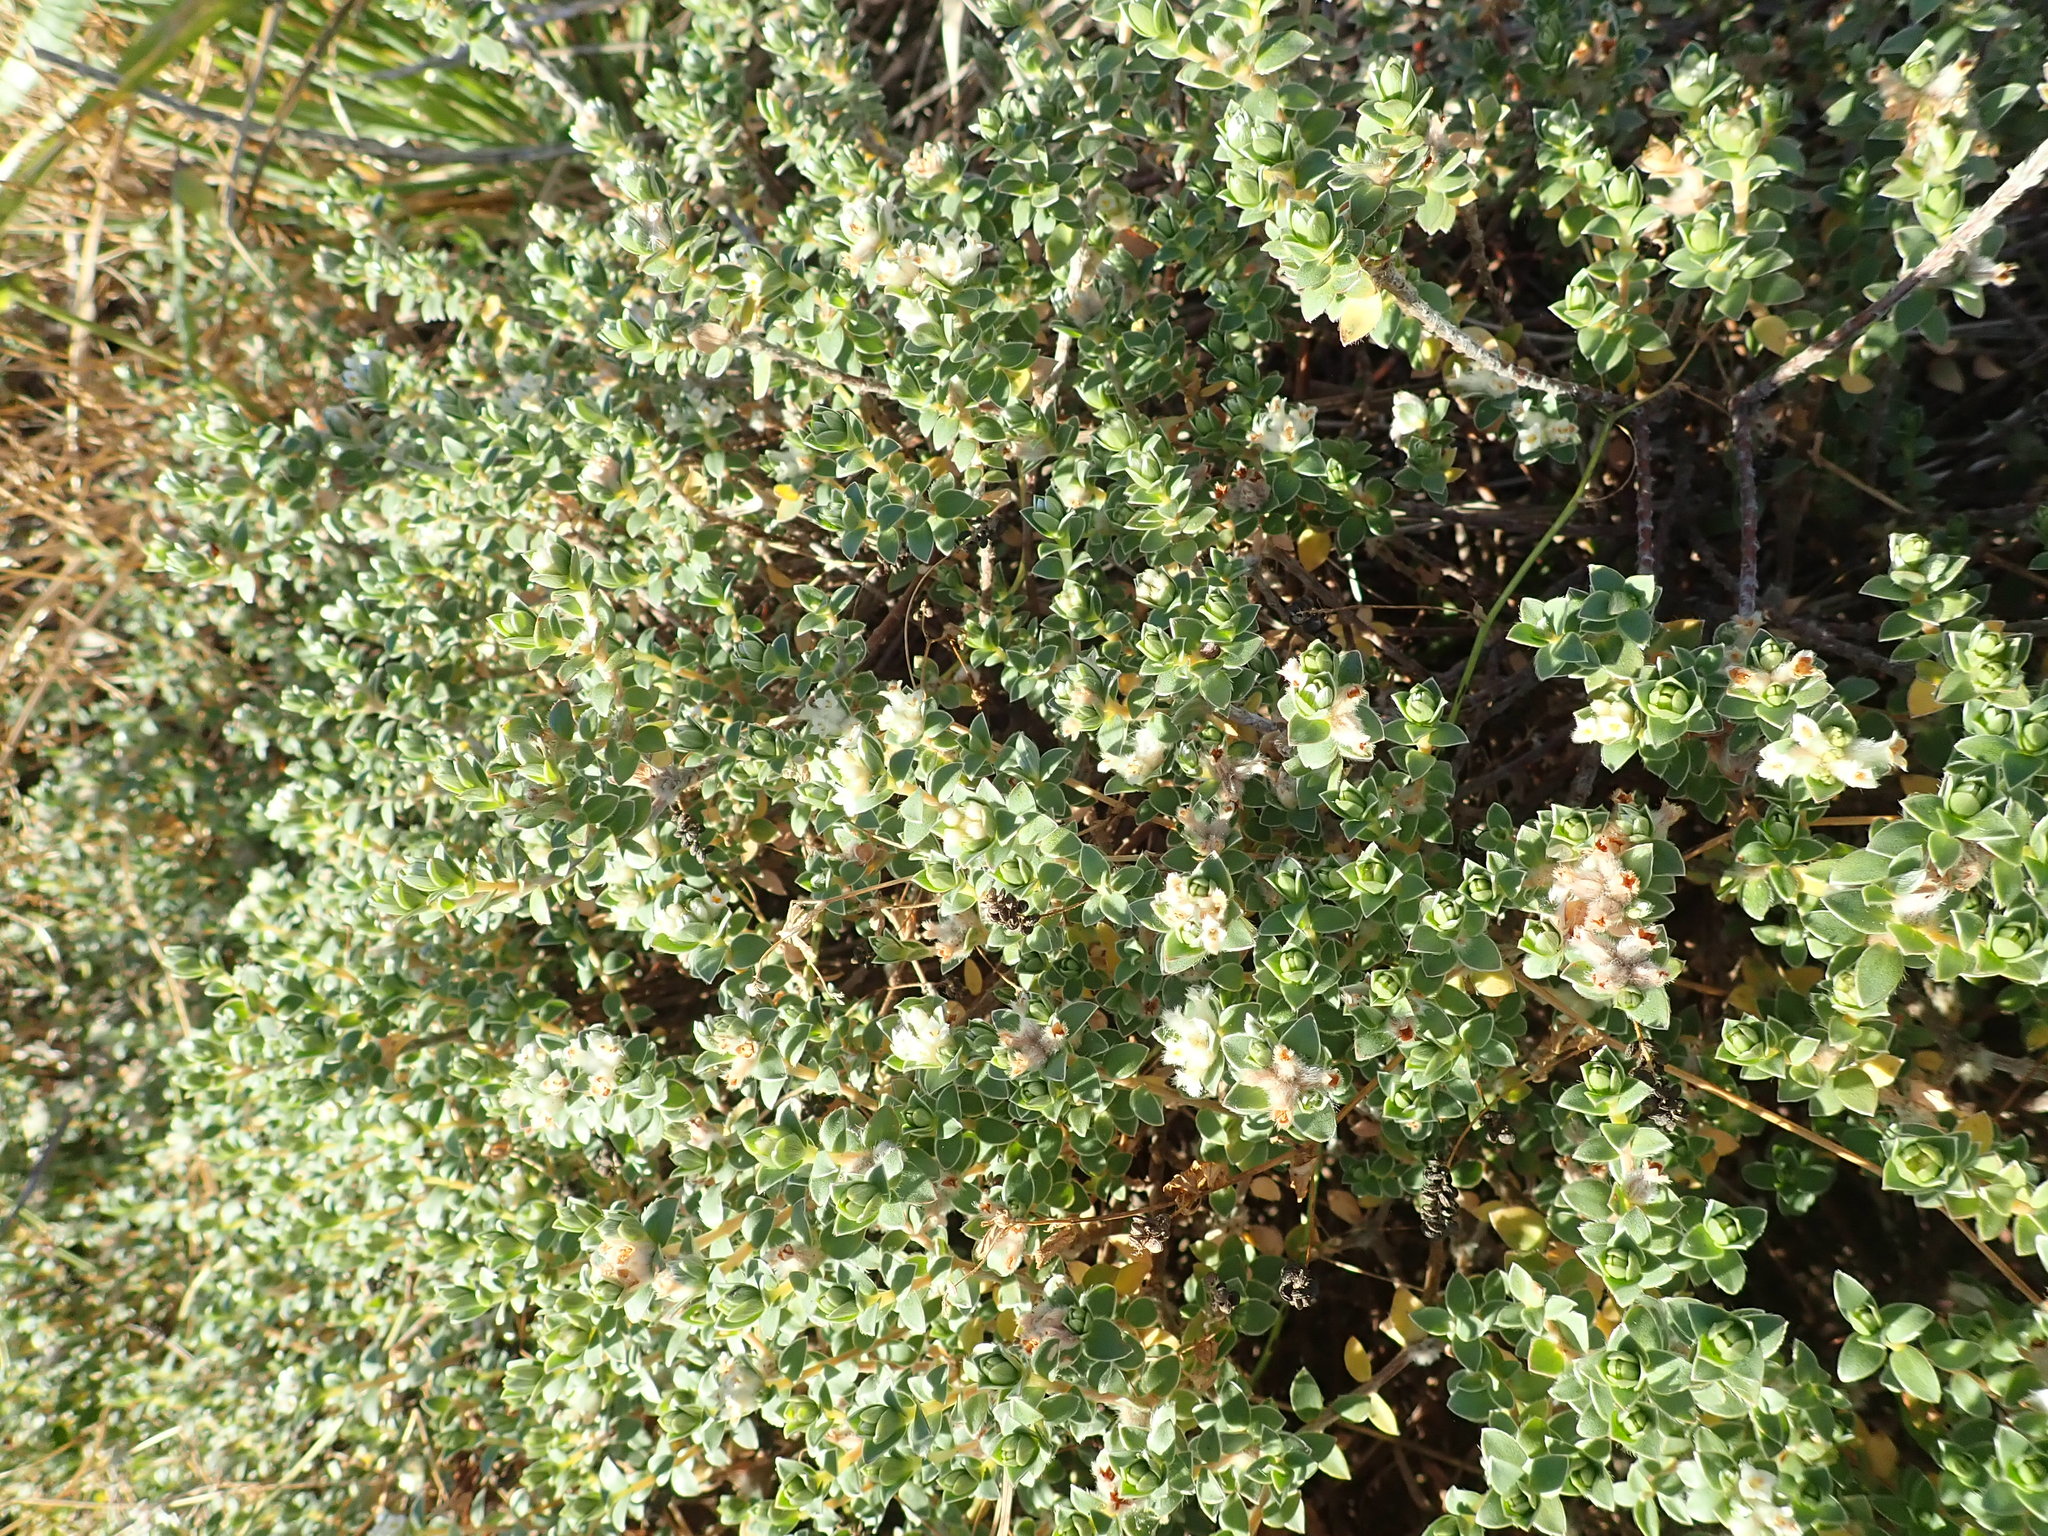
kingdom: Plantae
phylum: Tracheophyta
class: Magnoliopsida
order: Malvales
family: Thymelaeaceae
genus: Pimelea
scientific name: Pimelea villosa
